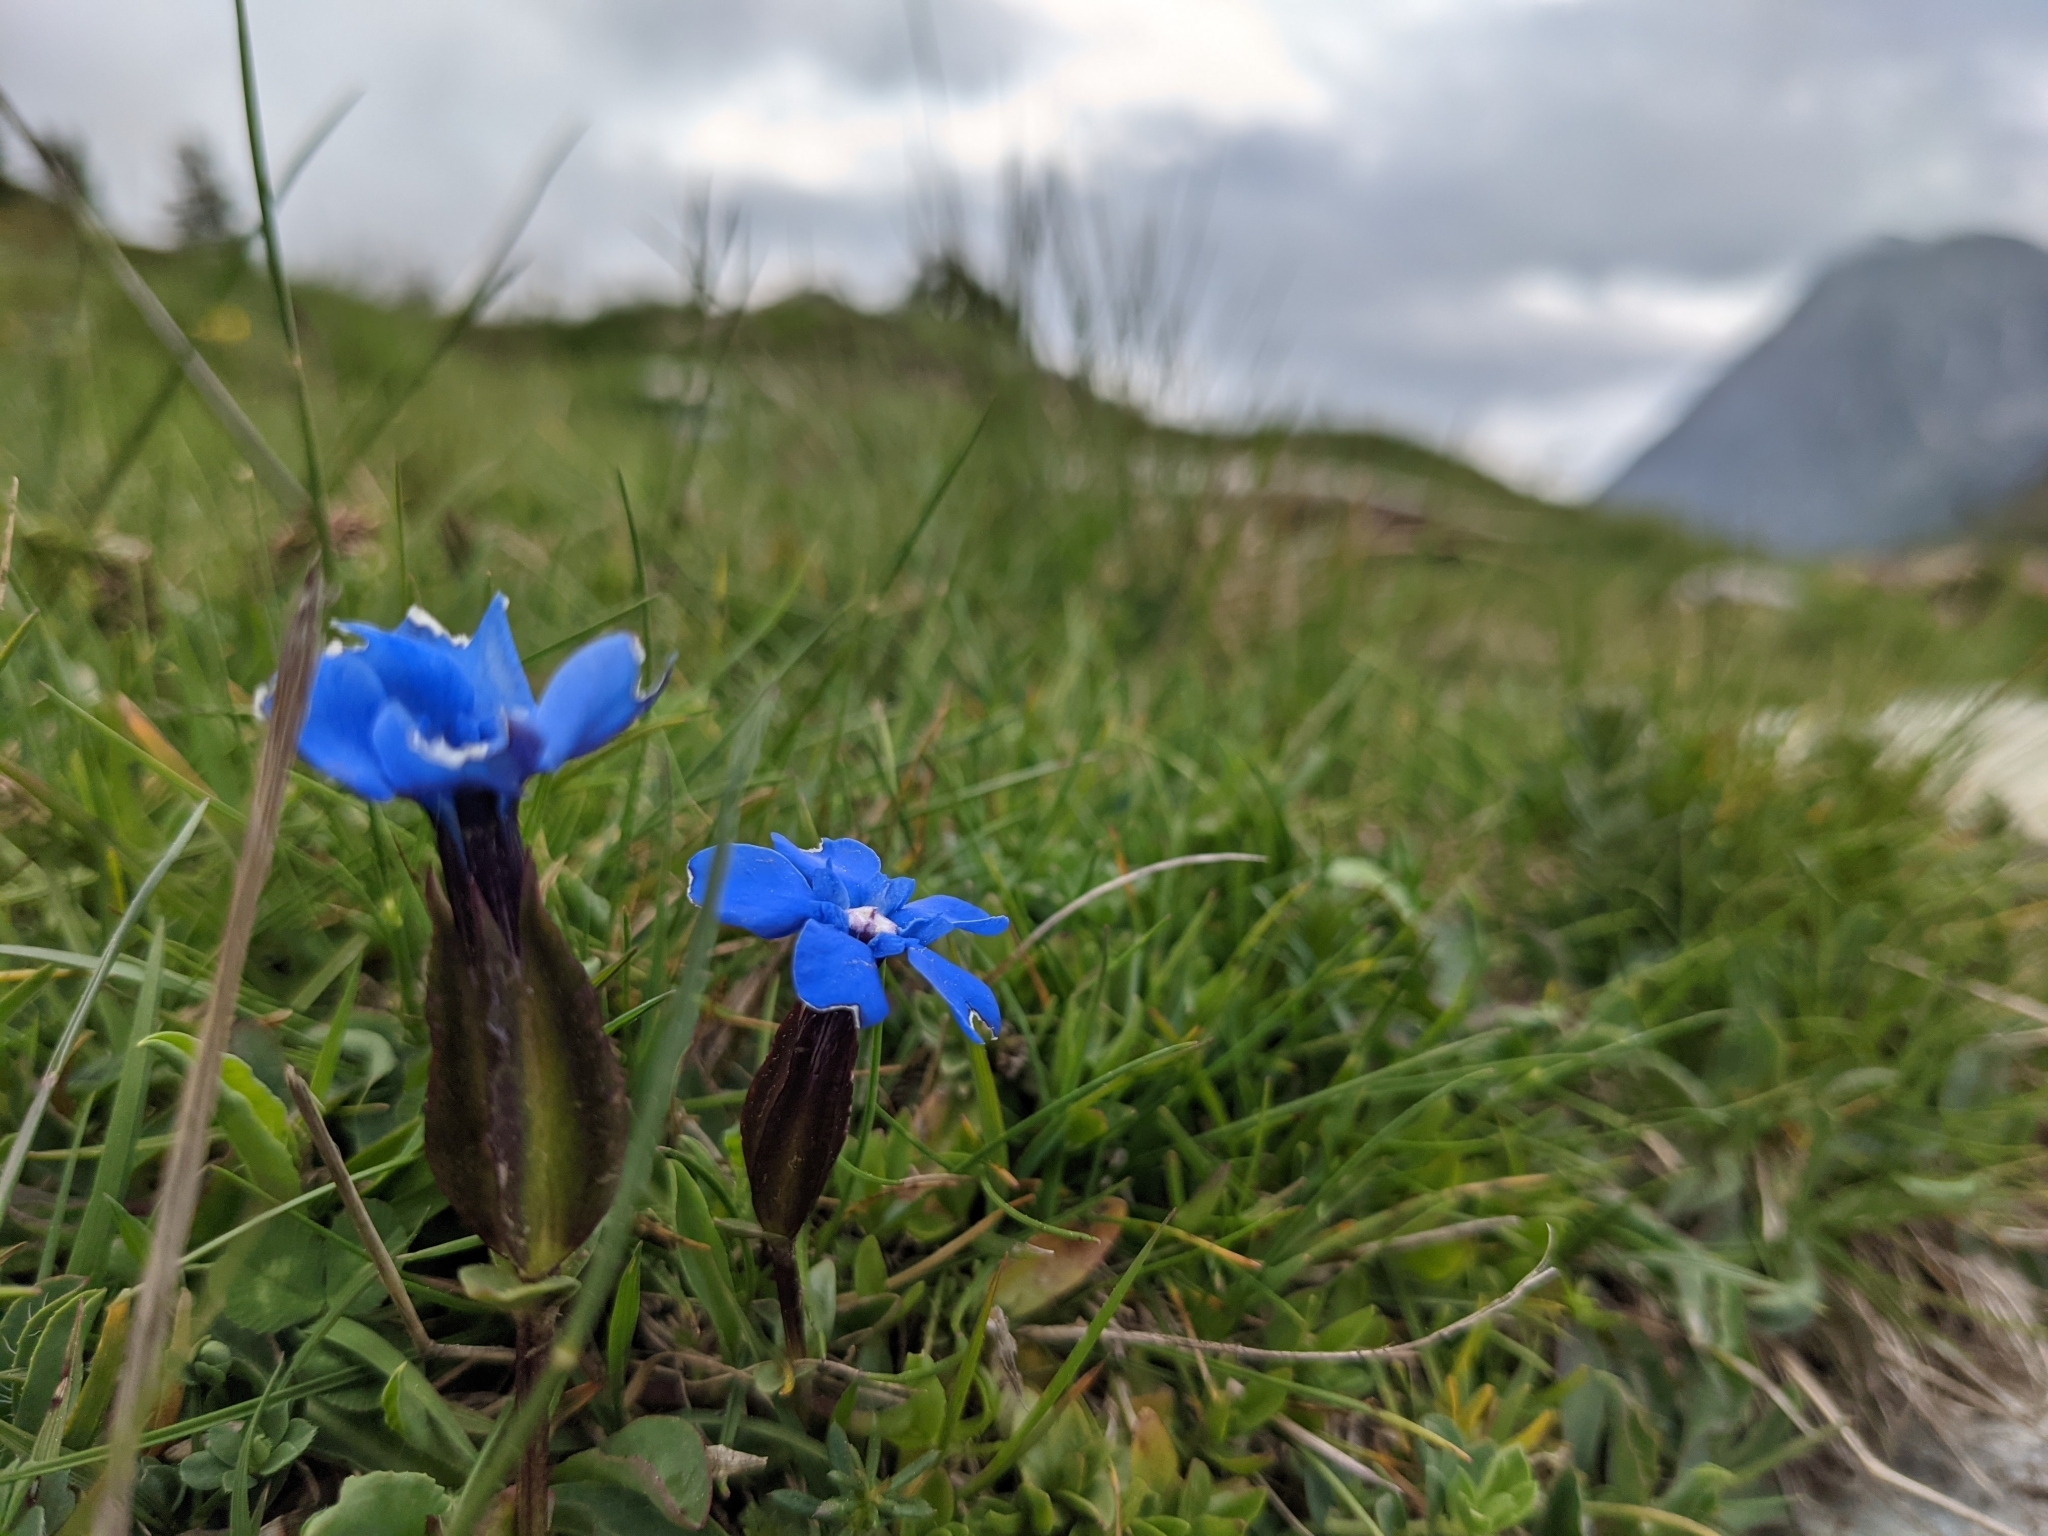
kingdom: Plantae
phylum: Tracheophyta
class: Magnoliopsida
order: Gentianales
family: Gentianaceae
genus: Gentiana
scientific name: Gentiana verna
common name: Spring gentian
